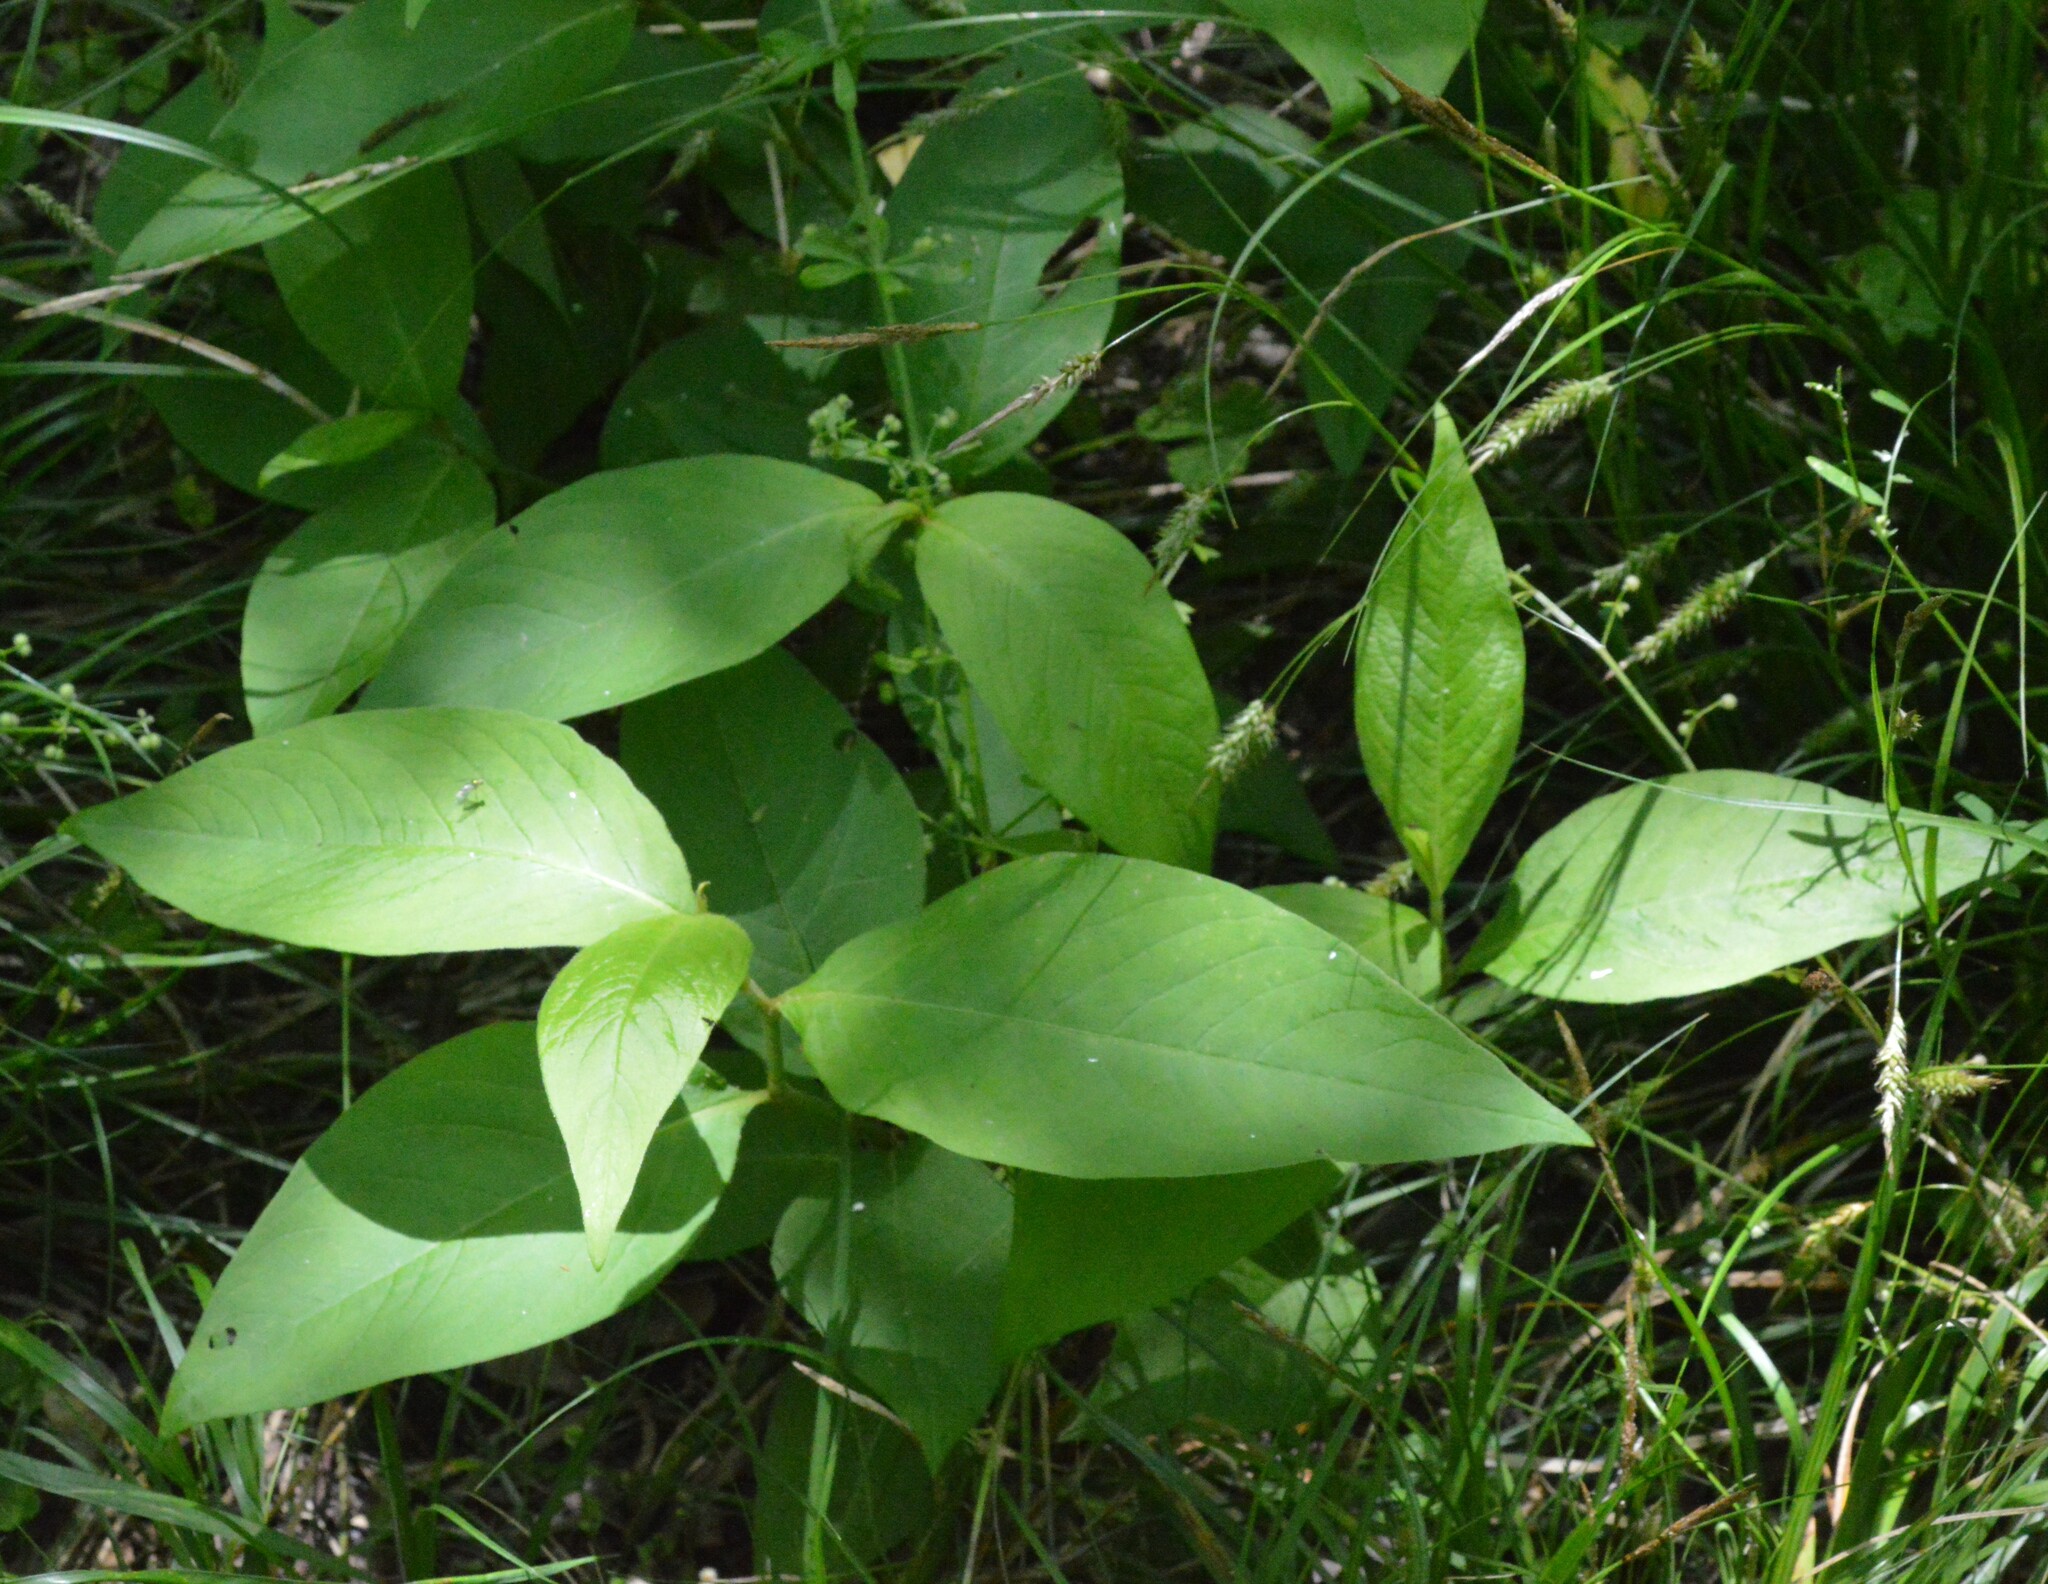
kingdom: Plantae
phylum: Tracheophyta
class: Magnoliopsida
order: Caryophyllales
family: Polygonaceae
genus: Persicaria
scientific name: Persicaria virginiana
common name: Jumpseed
